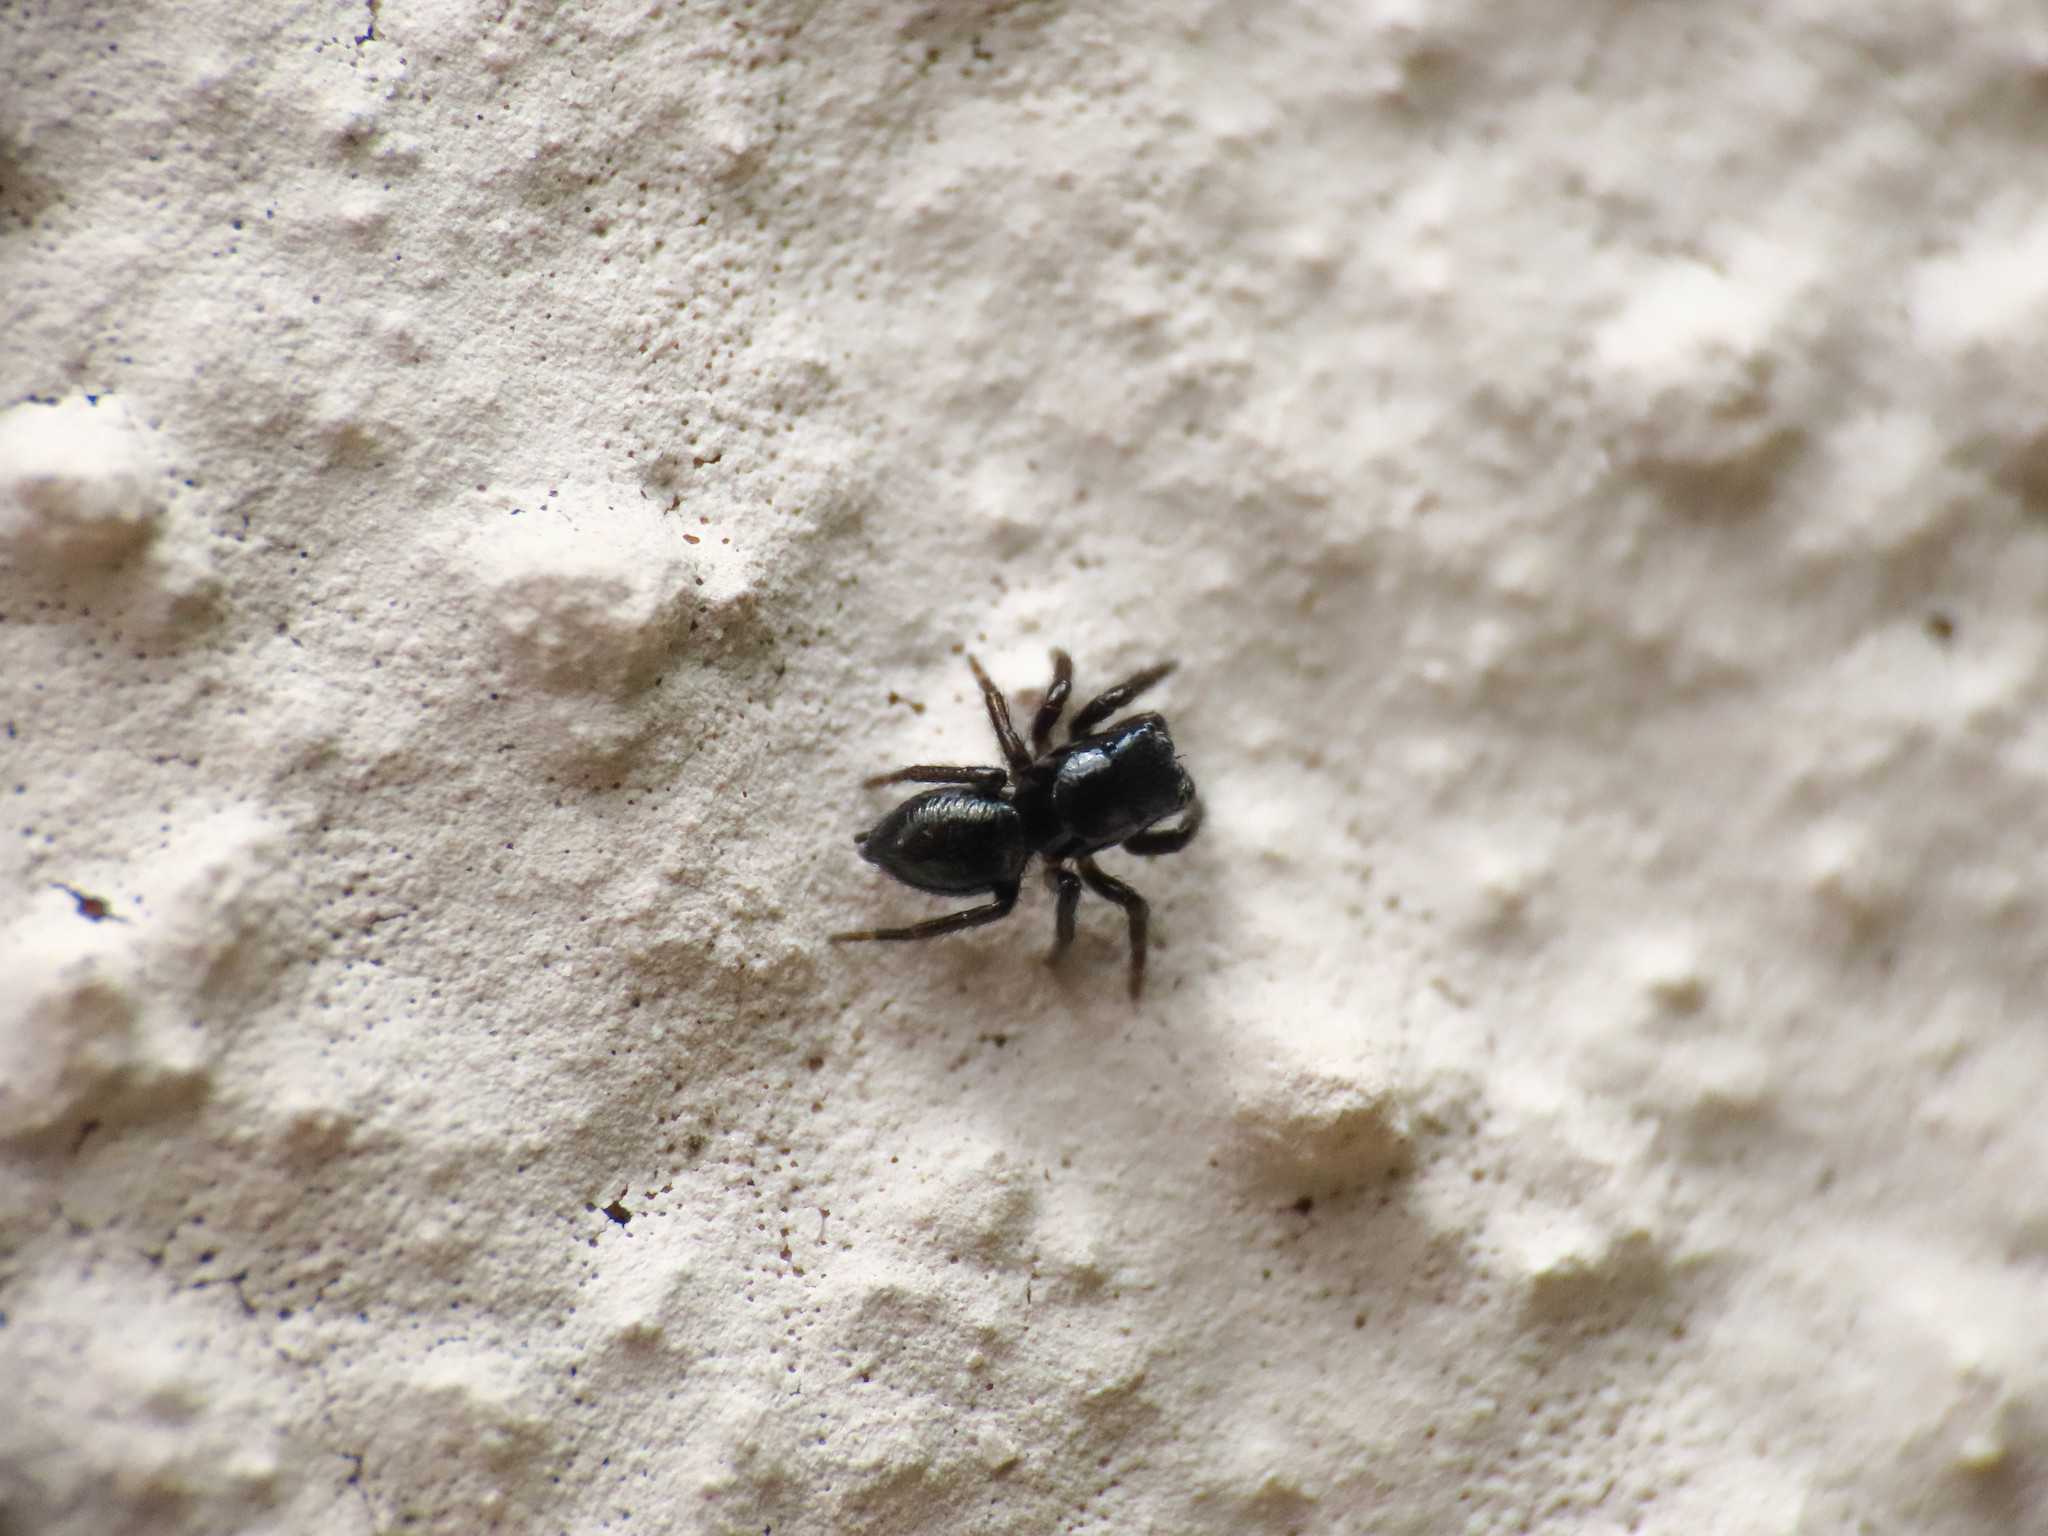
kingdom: Animalia
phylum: Arthropoda
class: Arachnida
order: Araneae
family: Salticidae
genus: Chalcoscirtus
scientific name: Chalcoscirtus infimus
